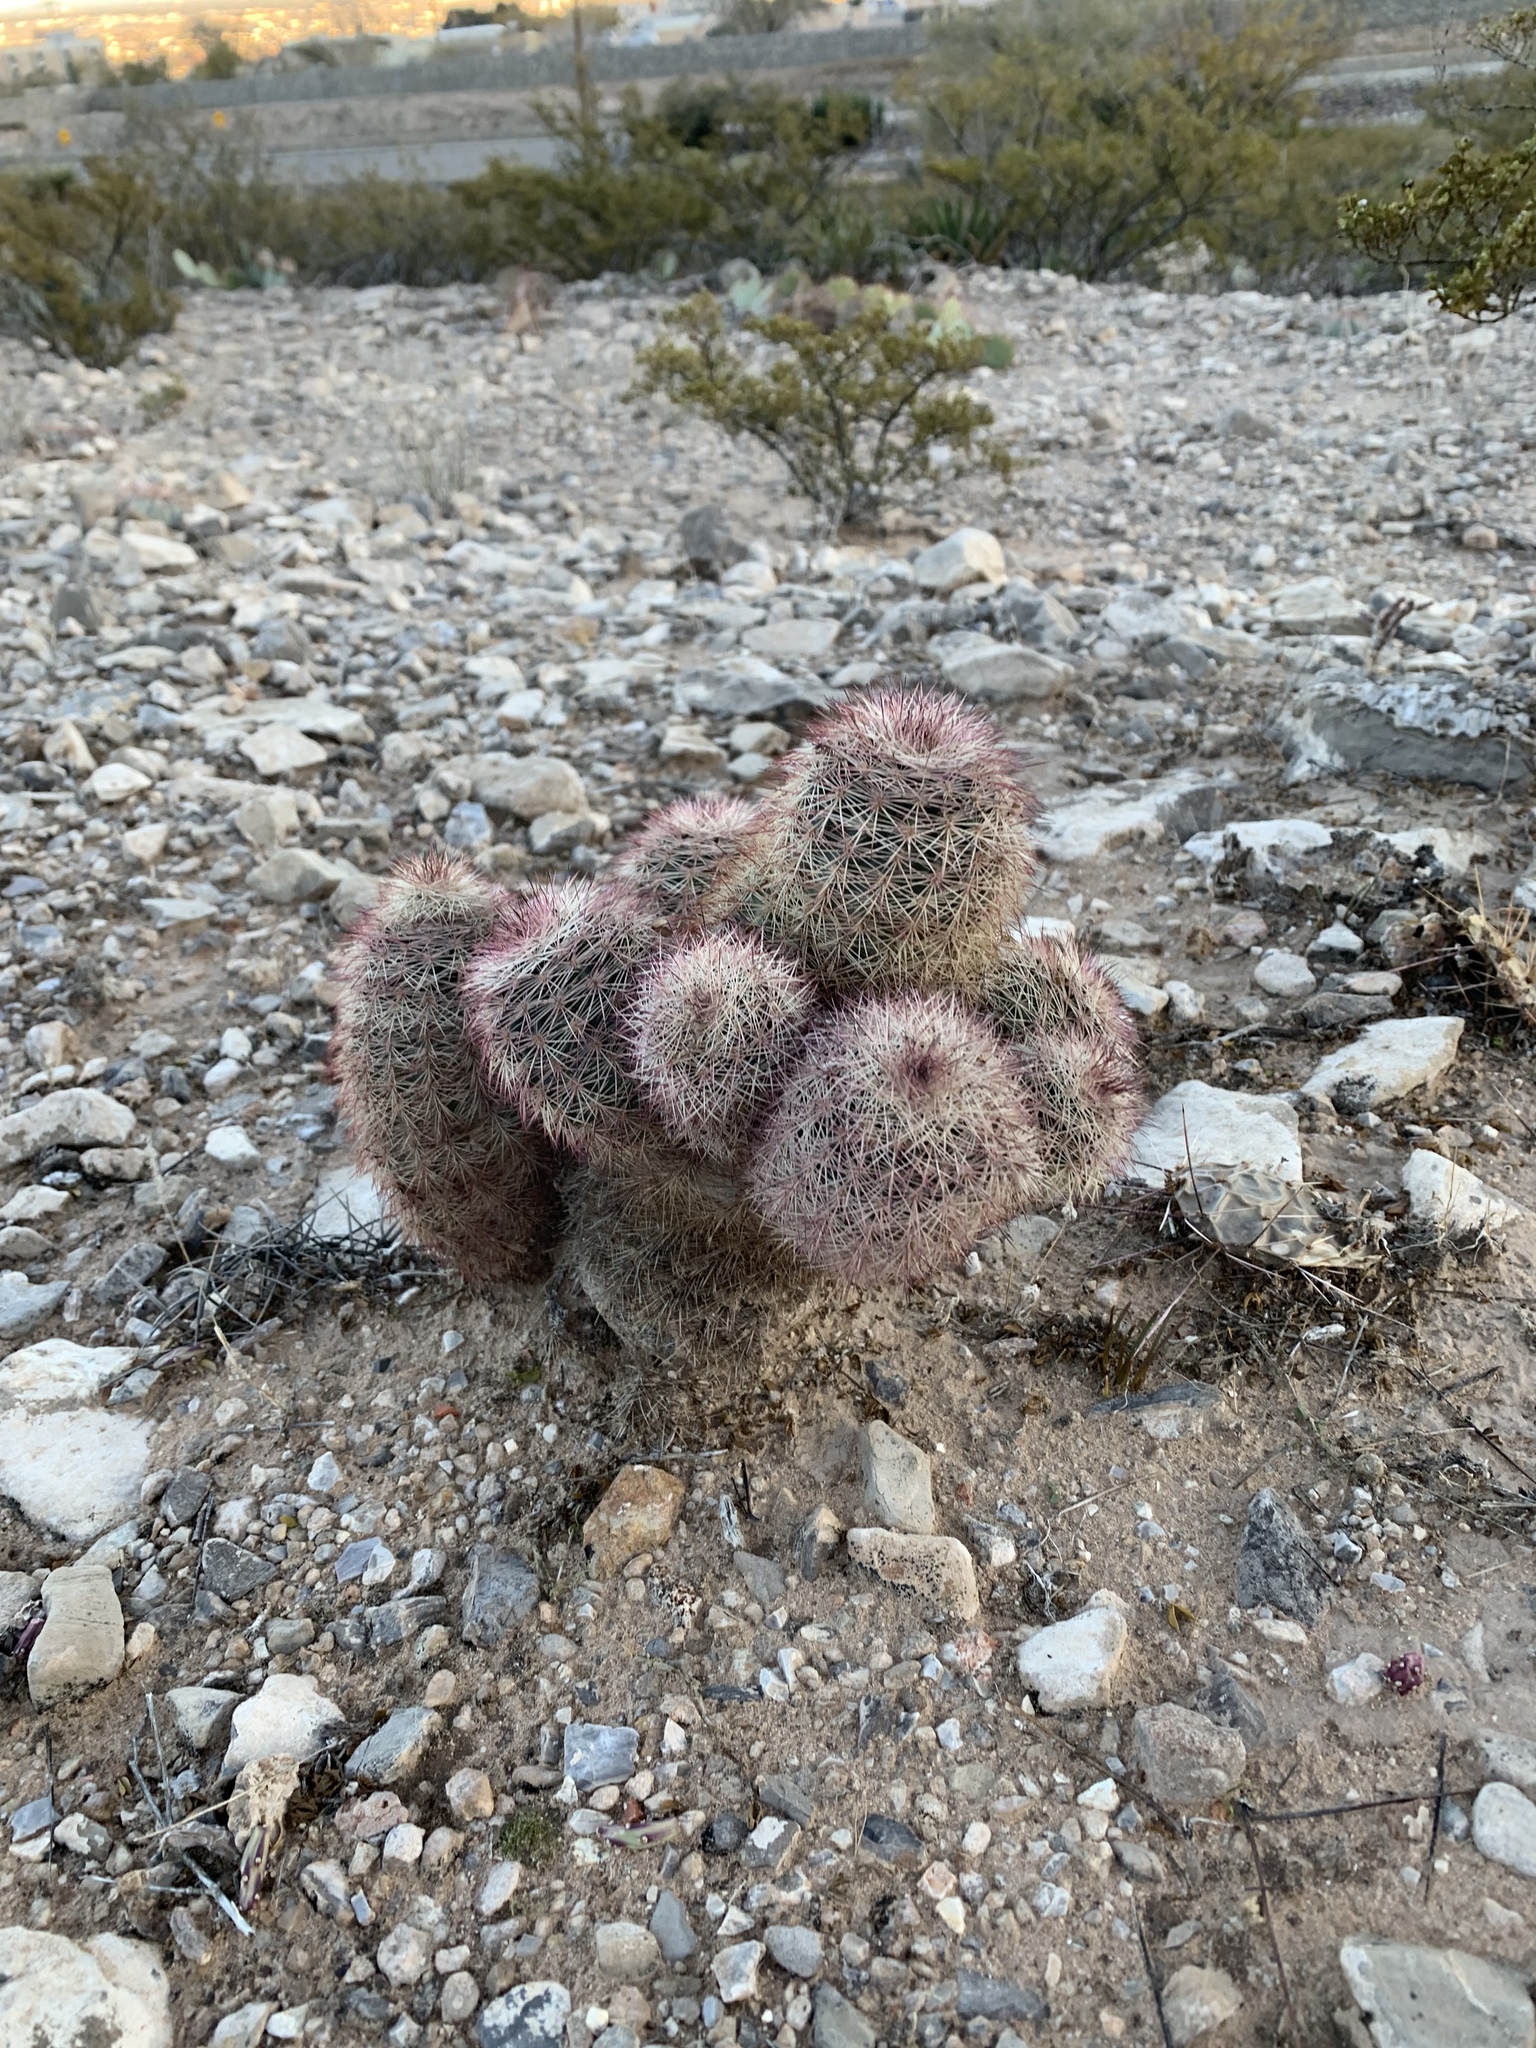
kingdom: Plantae
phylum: Tracheophyta
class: Magnoliopsida
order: Caryophyllales
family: Cactaceae
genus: Echinocereus
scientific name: Echinocereus dasyacanthus
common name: Spiny hedgehog cactus
